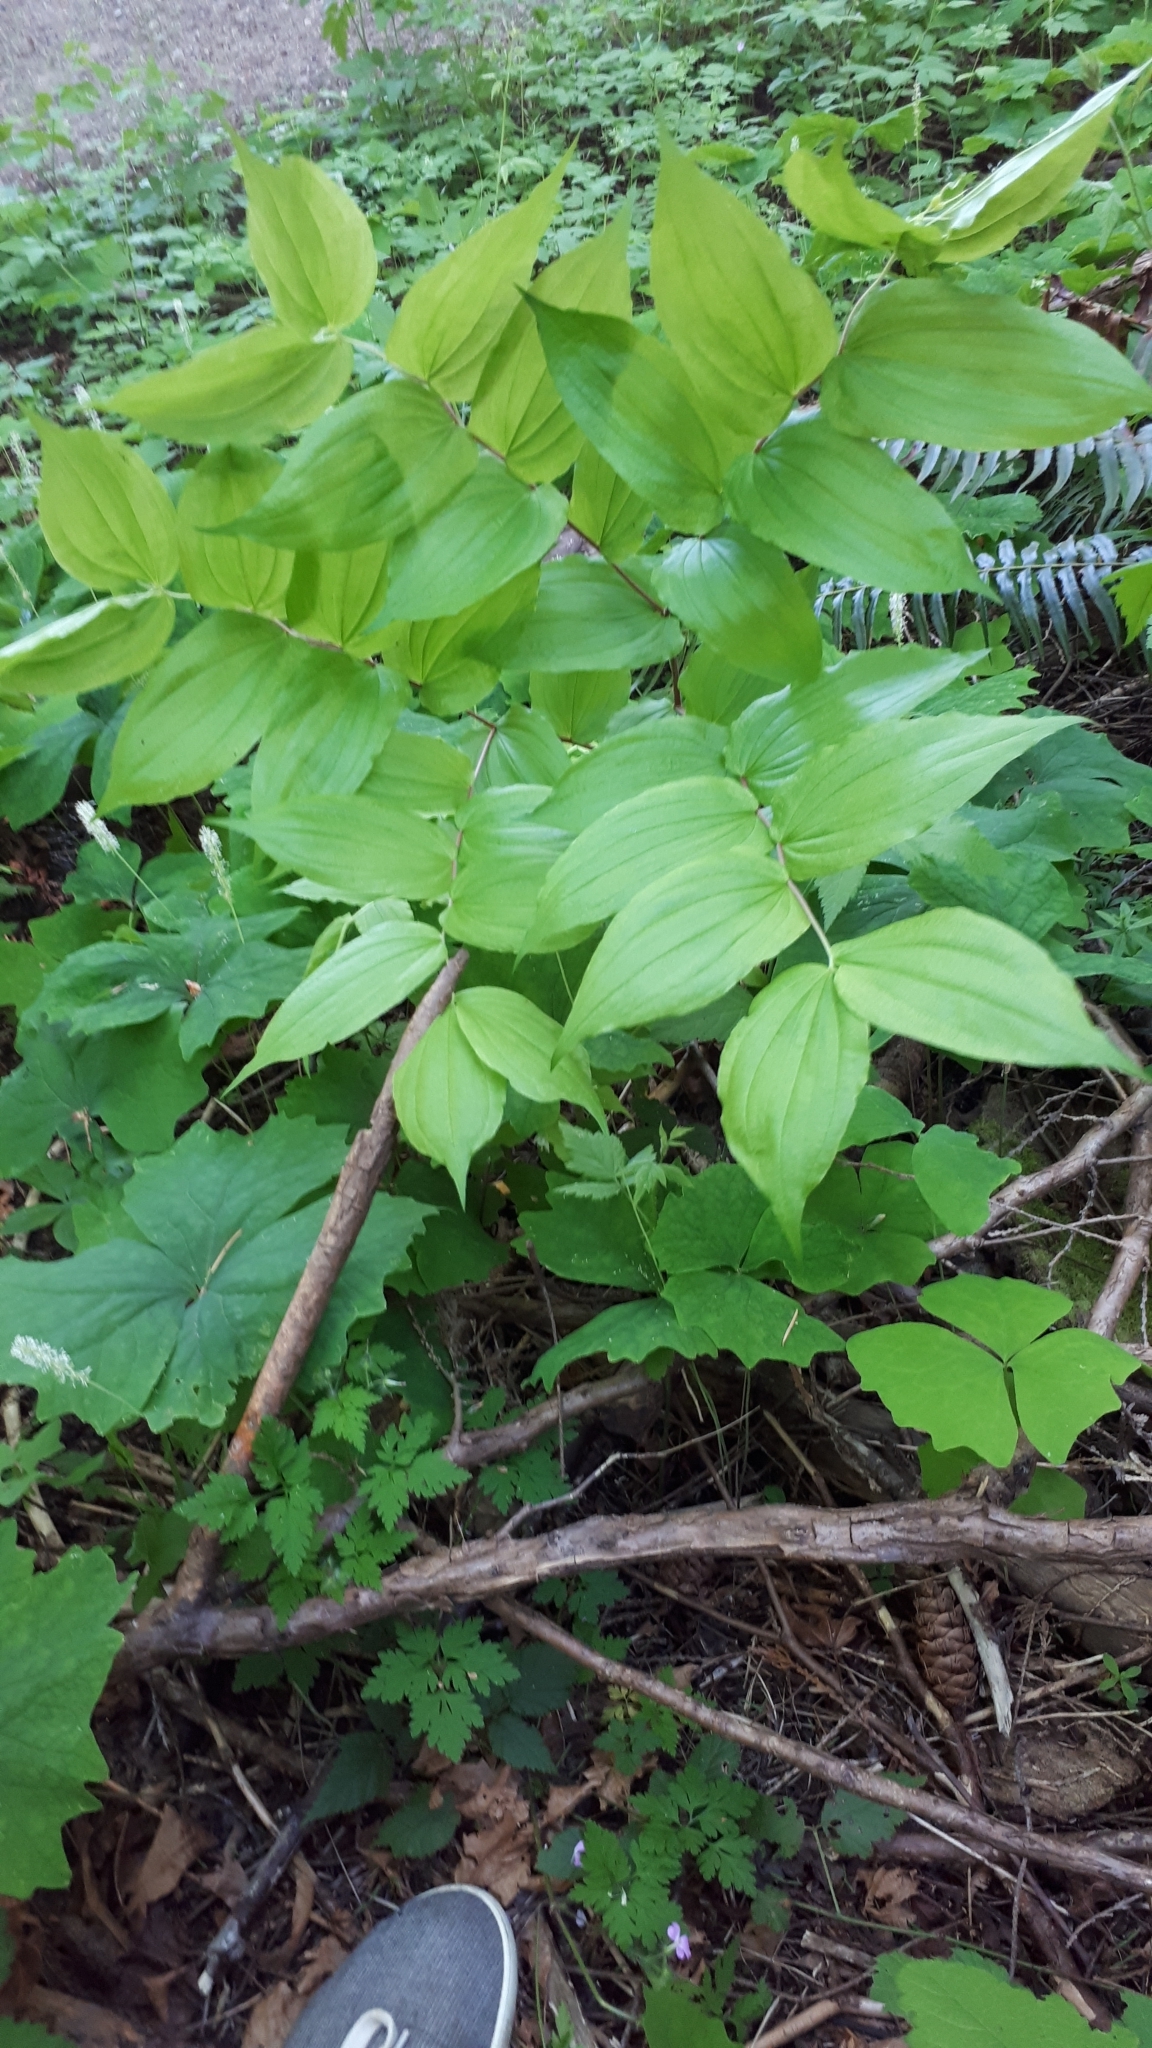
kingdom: Plantae
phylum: Tracheophyta
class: Liliopsida
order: Liliales
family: Liliaceae
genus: Prosartes
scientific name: Prosartes hookeri
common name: Fairy-bells
